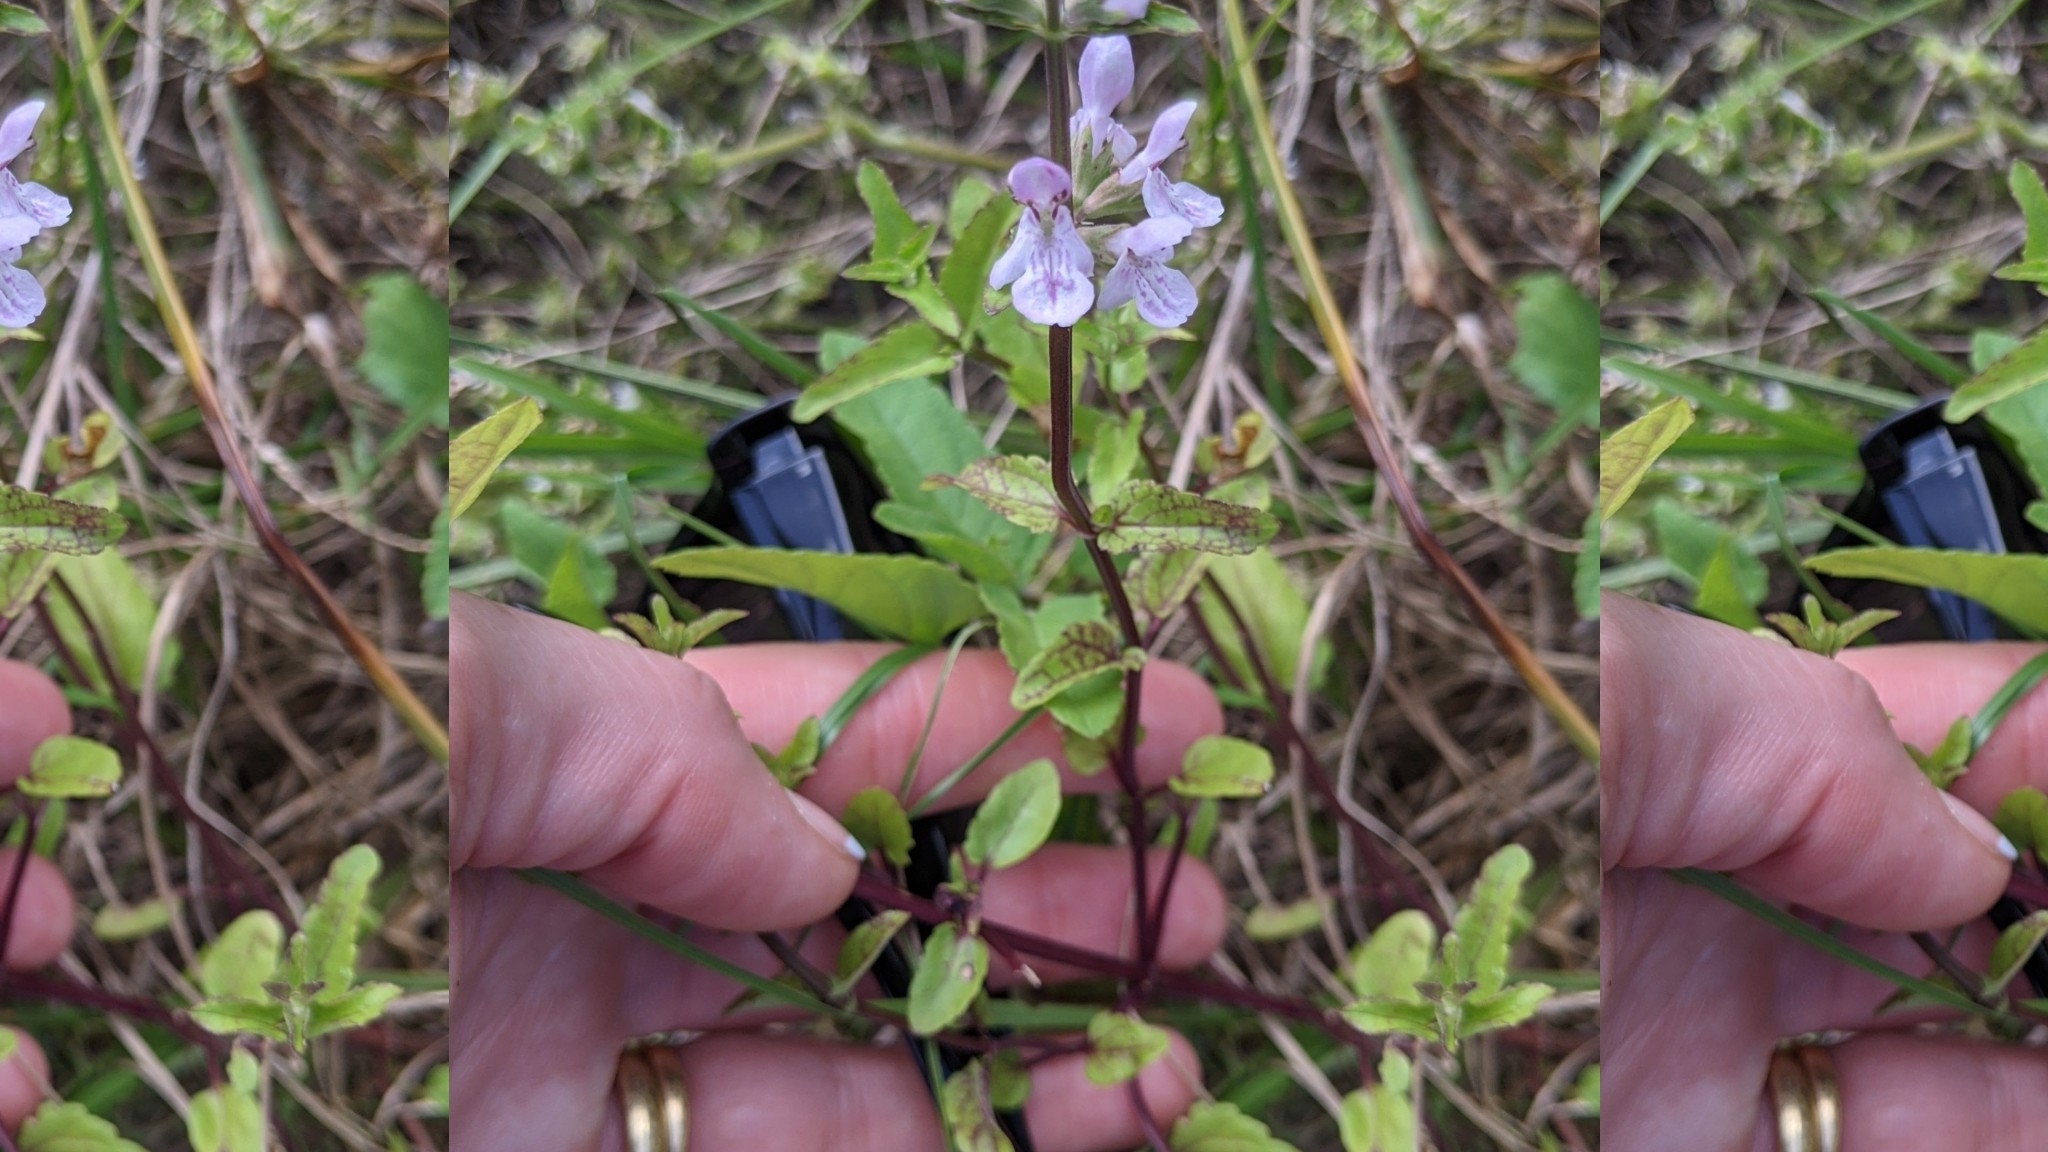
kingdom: Plantae
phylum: Tracheophyta
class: Magnoliopsida
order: Lamiales
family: Lamiaceae
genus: Stachys
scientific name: Stachys floridana
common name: Florida betony
